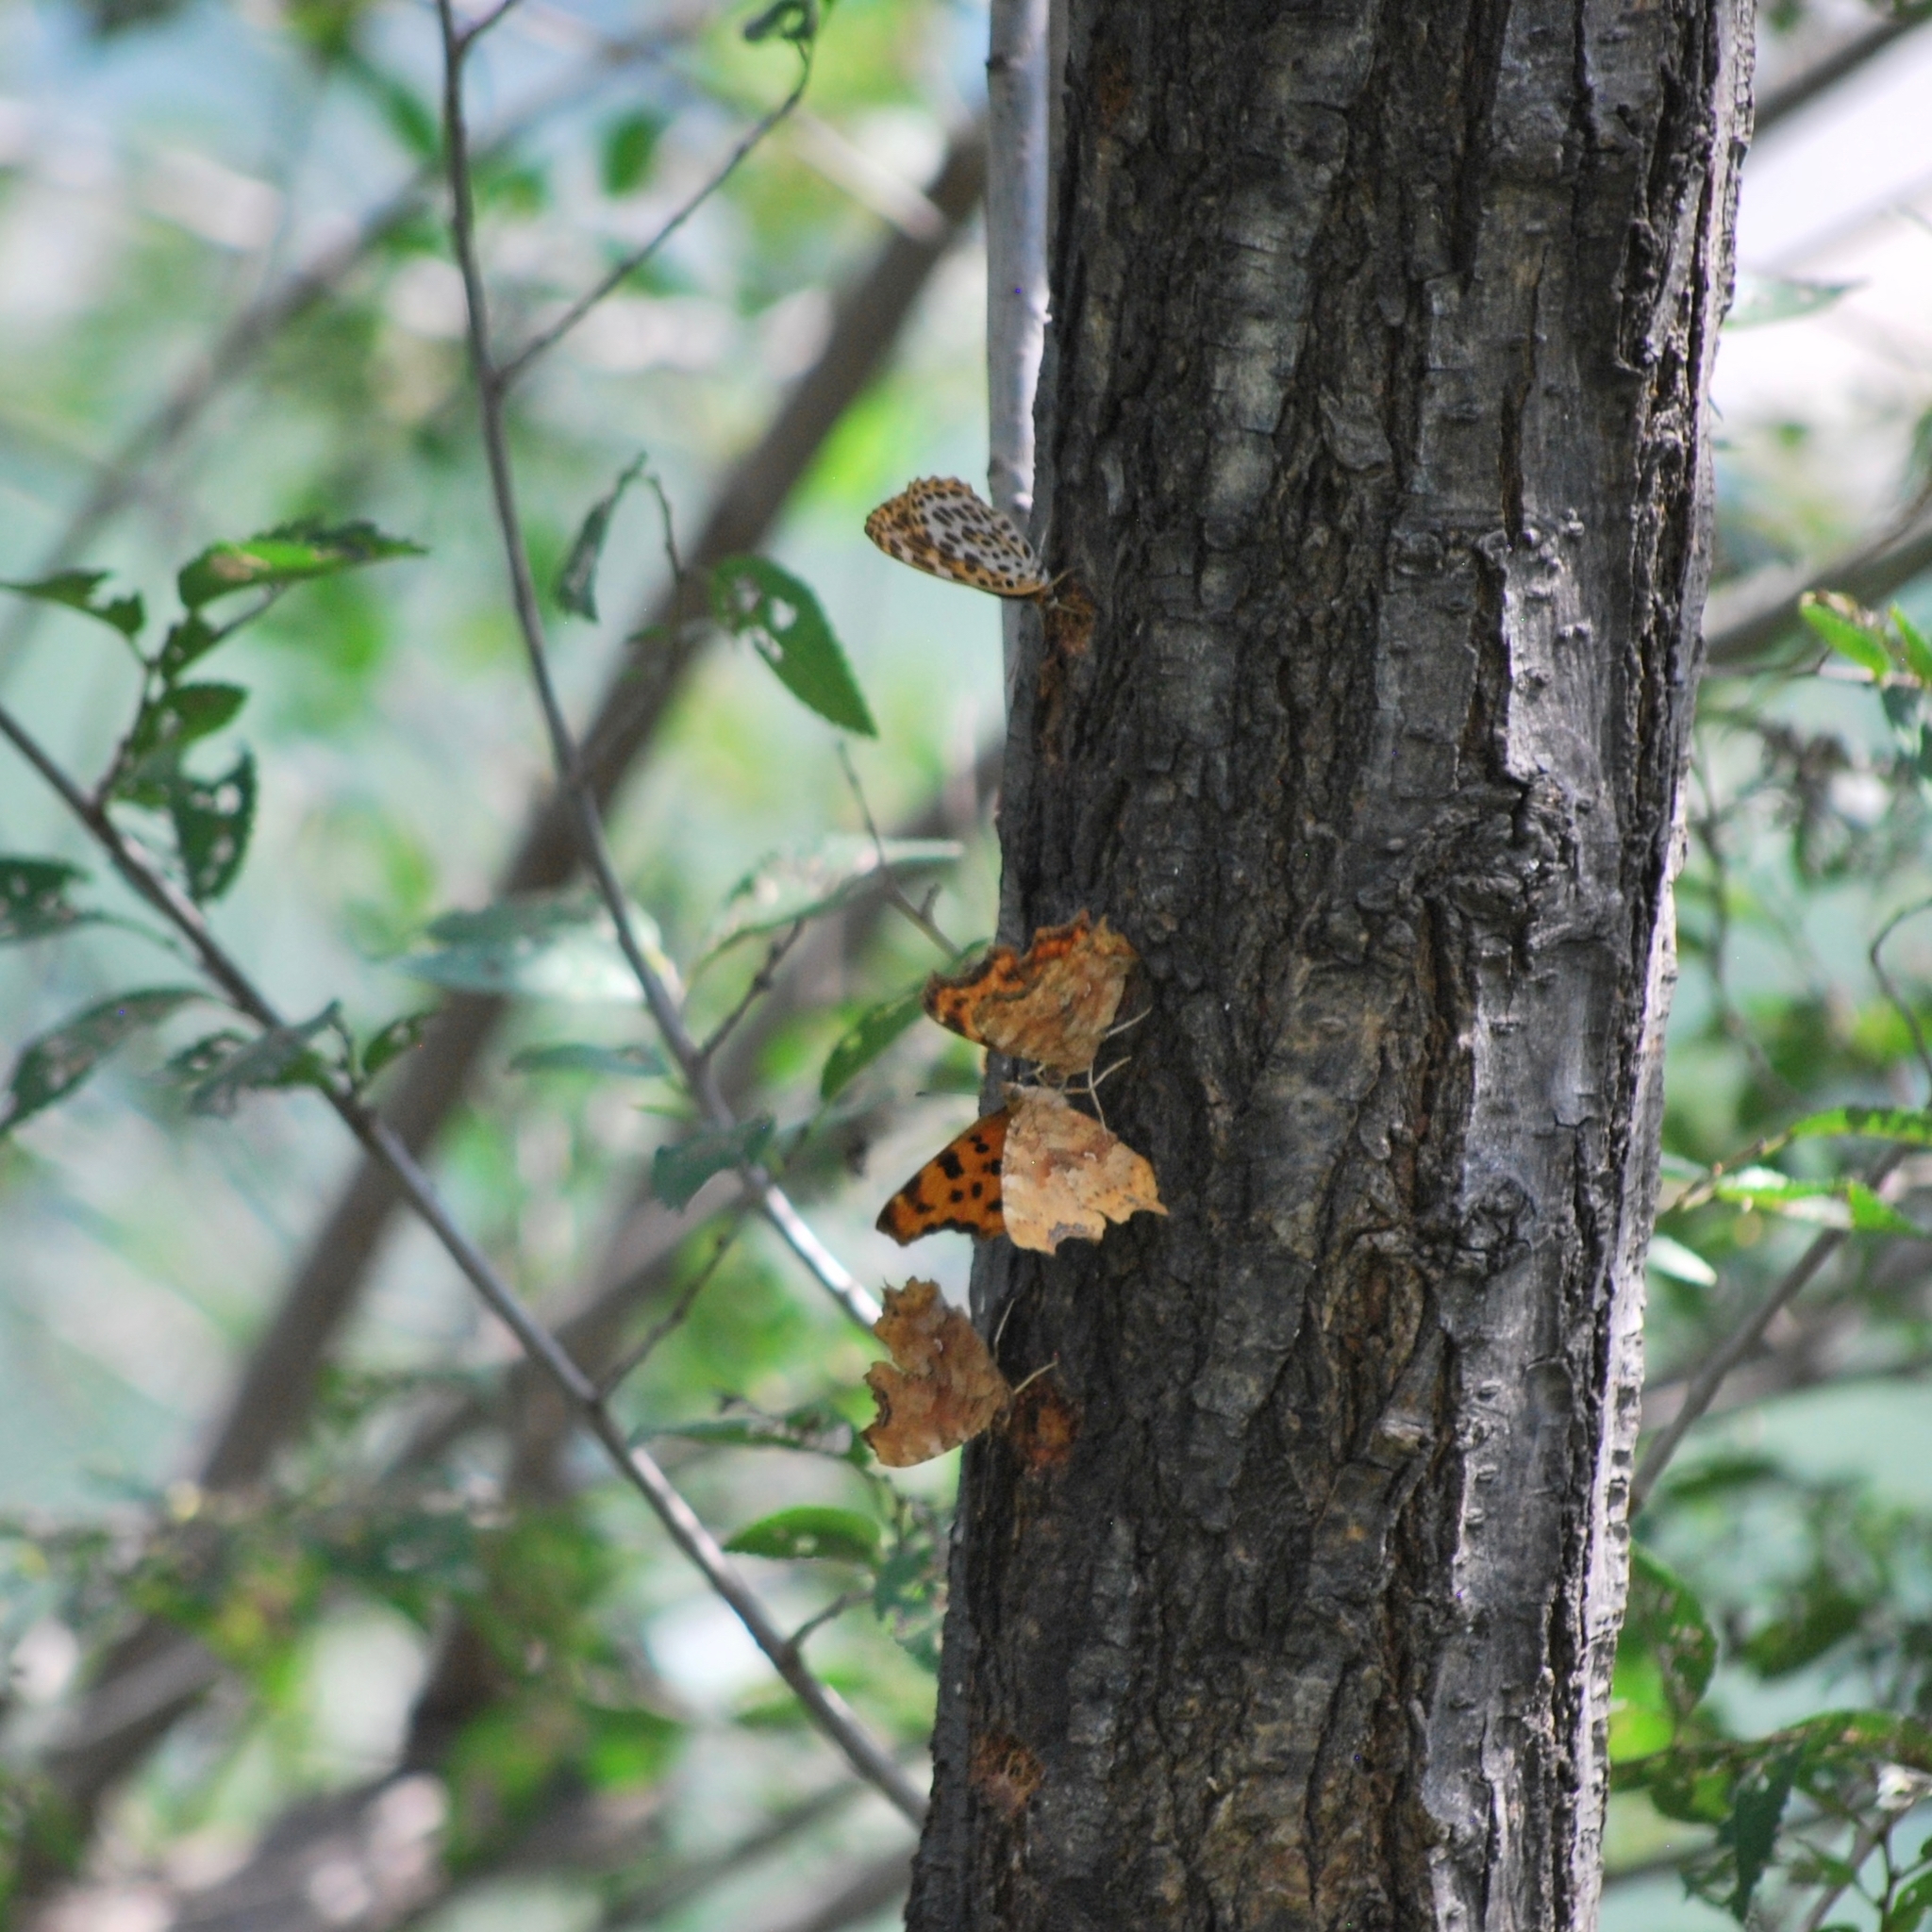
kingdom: Animalia
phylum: Arthropoda
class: Insecta
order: Lepidoptera
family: Nymphalidae
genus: Polygonia
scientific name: Polygonia c-album
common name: Comma
